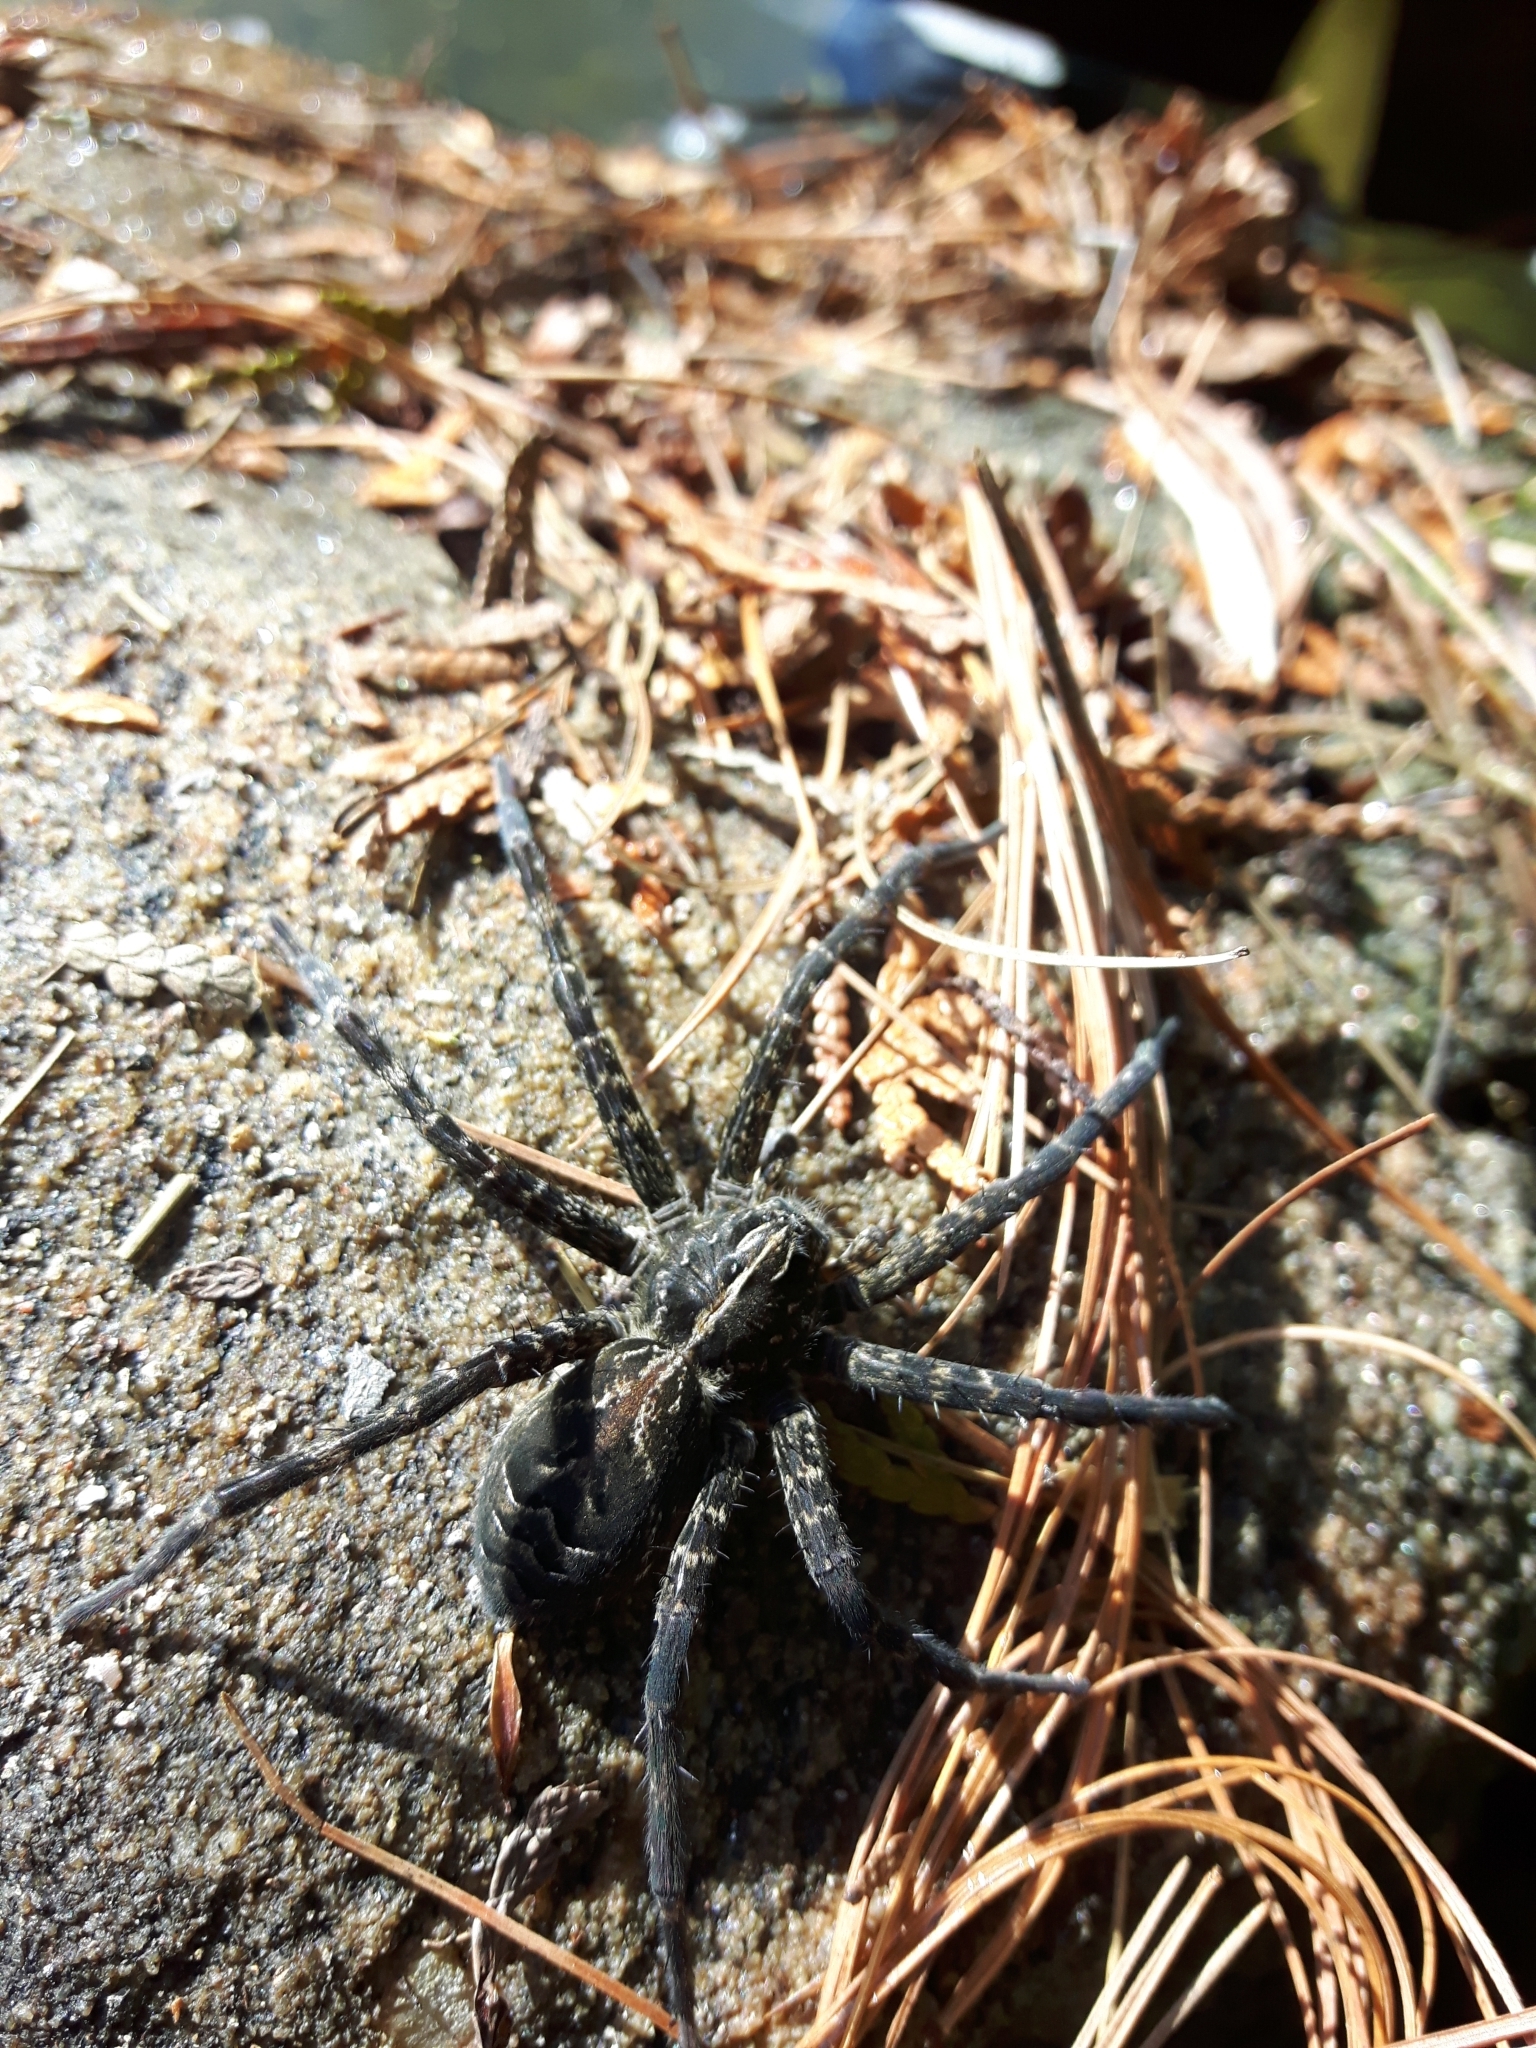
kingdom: Animalia
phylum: Arthropoda
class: Arachnida
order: Araneae
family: Pisauridae
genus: Dolomedes
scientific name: Dolomedes scriptus
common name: Striped fishing spider
